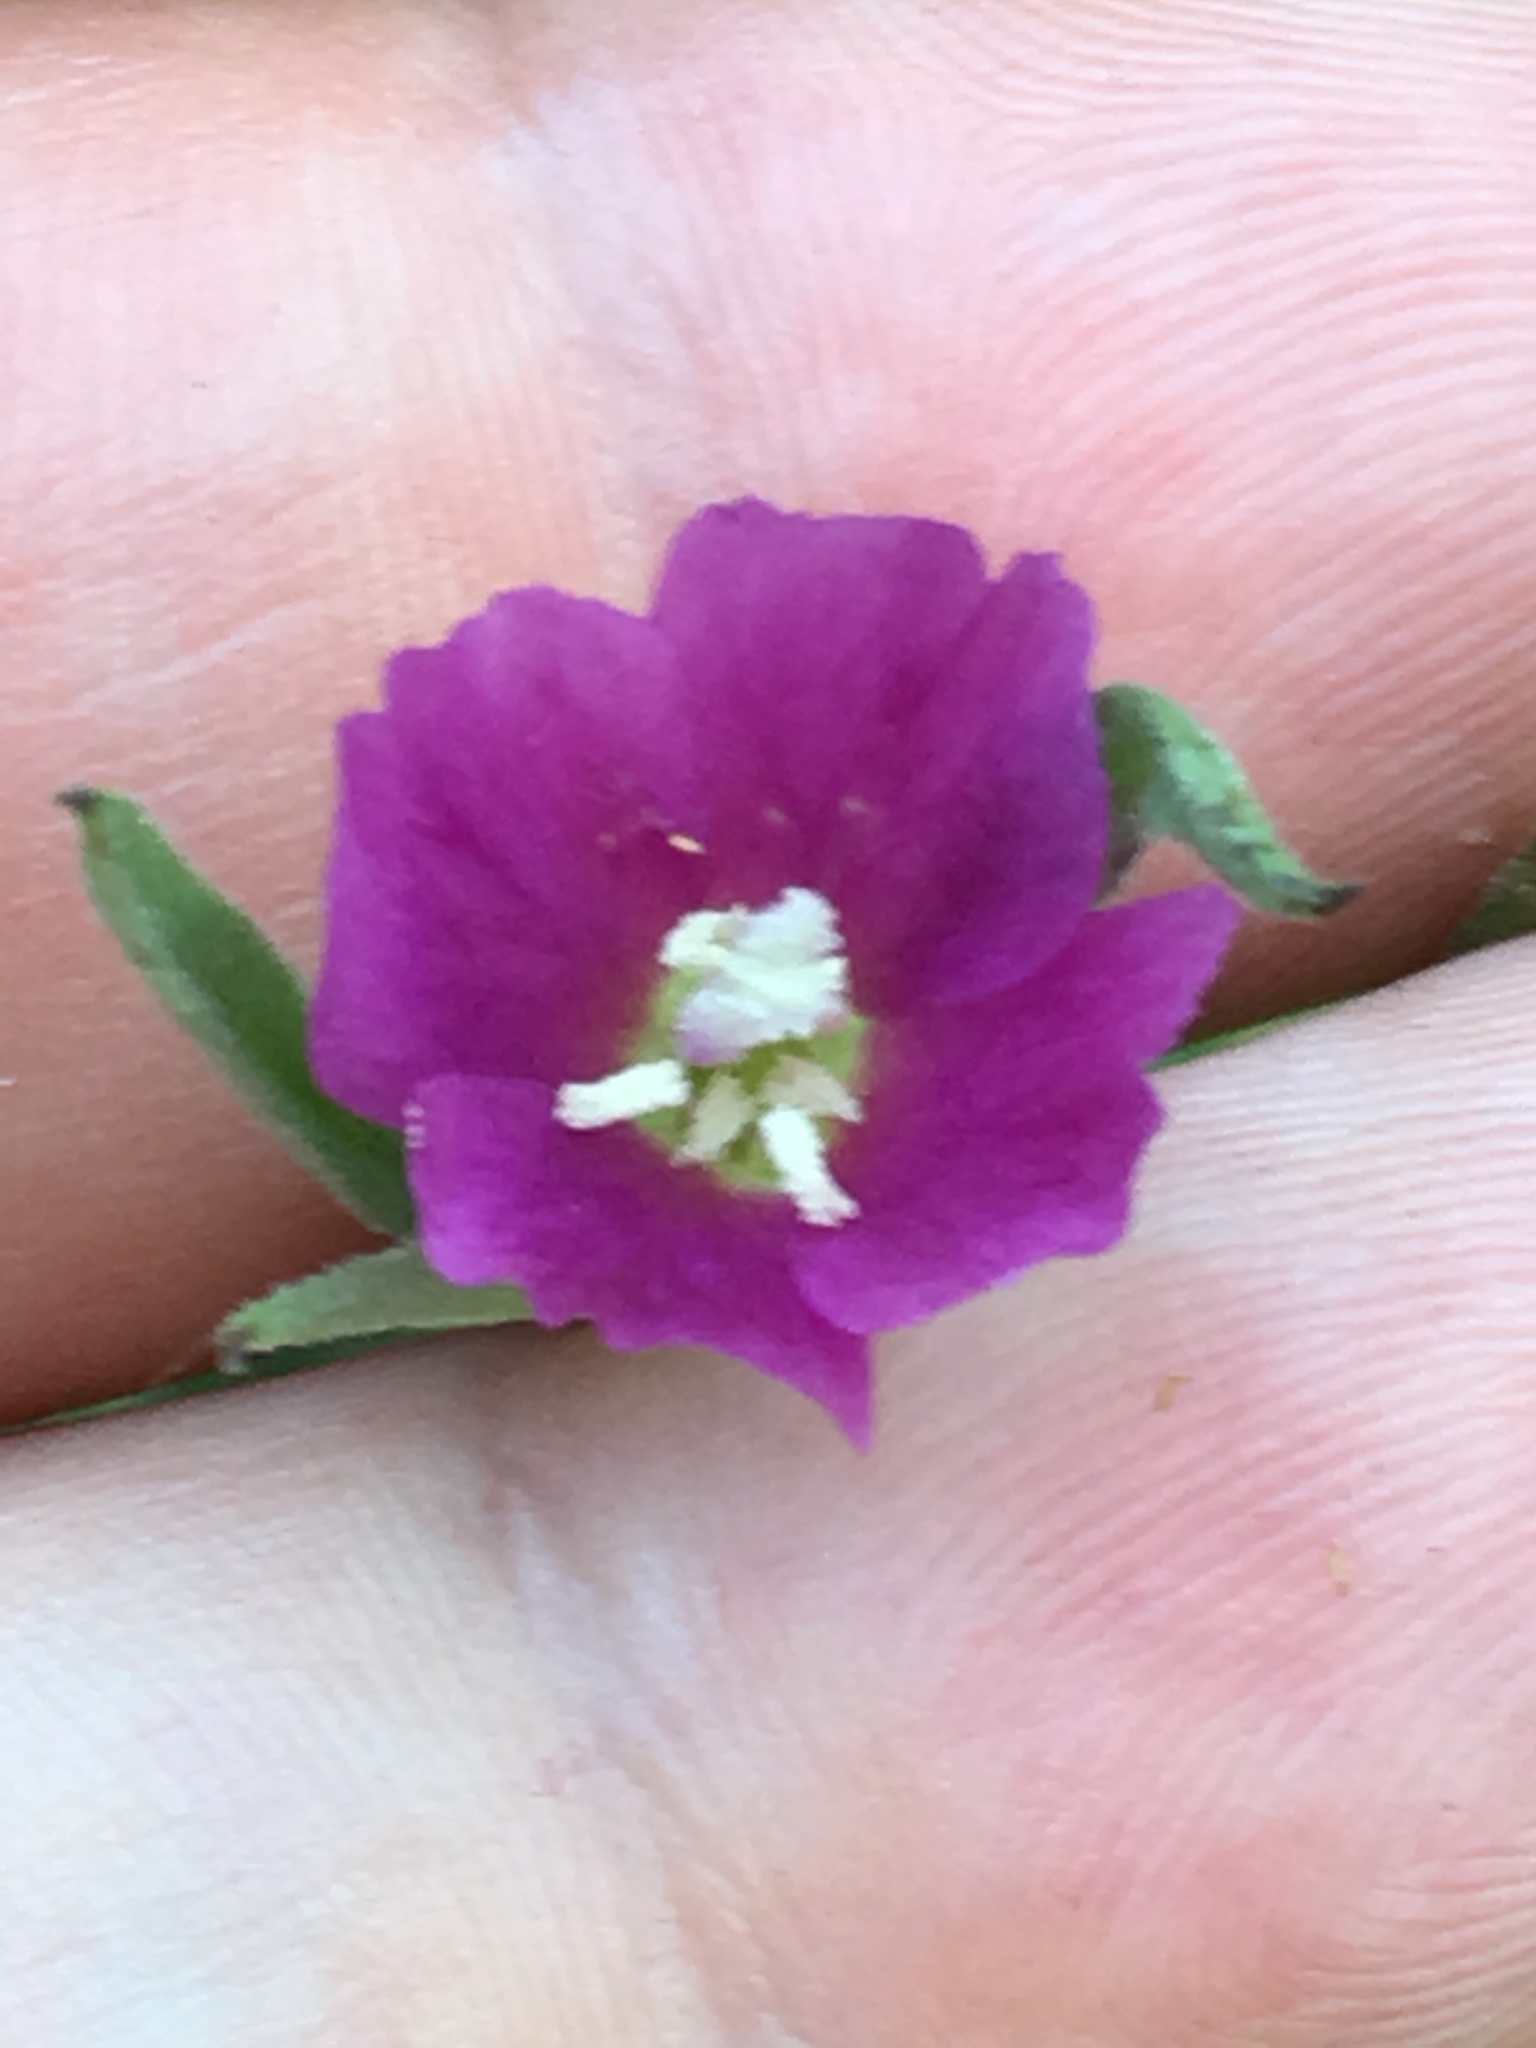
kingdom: Plantae
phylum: Tracheophyta
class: Magnoliopsida
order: Myrtales
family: Onagraceae
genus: Clarkia
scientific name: Clarkia purpurea
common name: Purple clarkia
